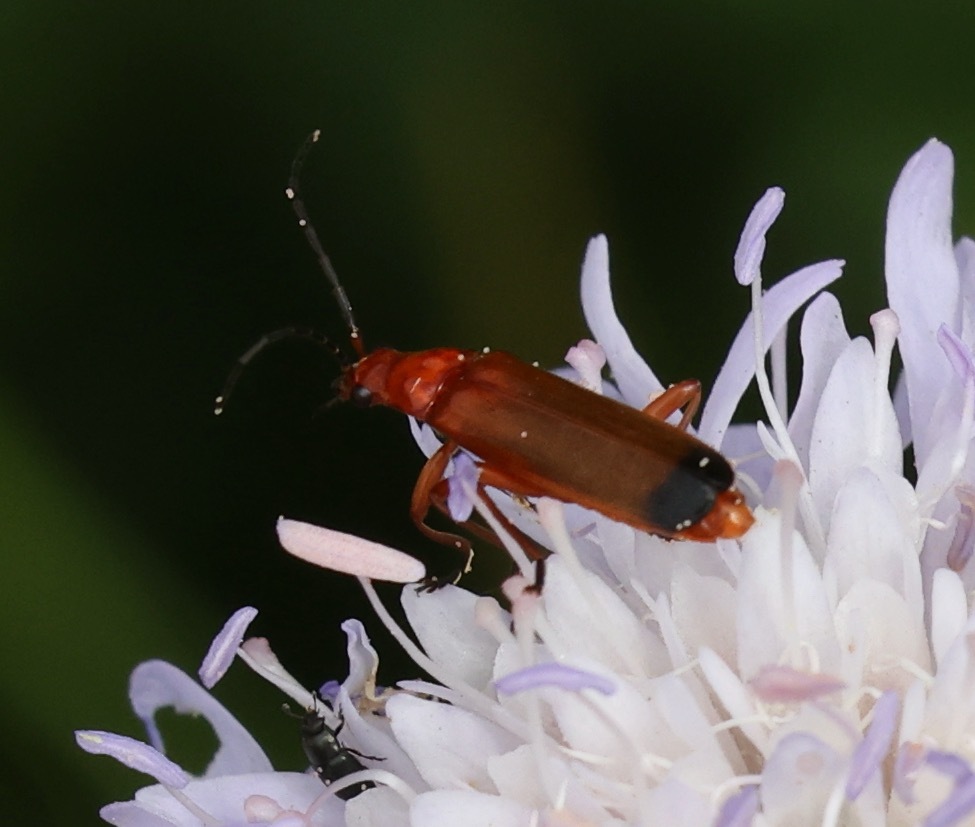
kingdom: Animalia
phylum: Arthropoda
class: Insecta
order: Coleoptera
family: Cantharidae
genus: Rhagonycha
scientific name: Rhagonycha fulva
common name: Common red soldier beetle
